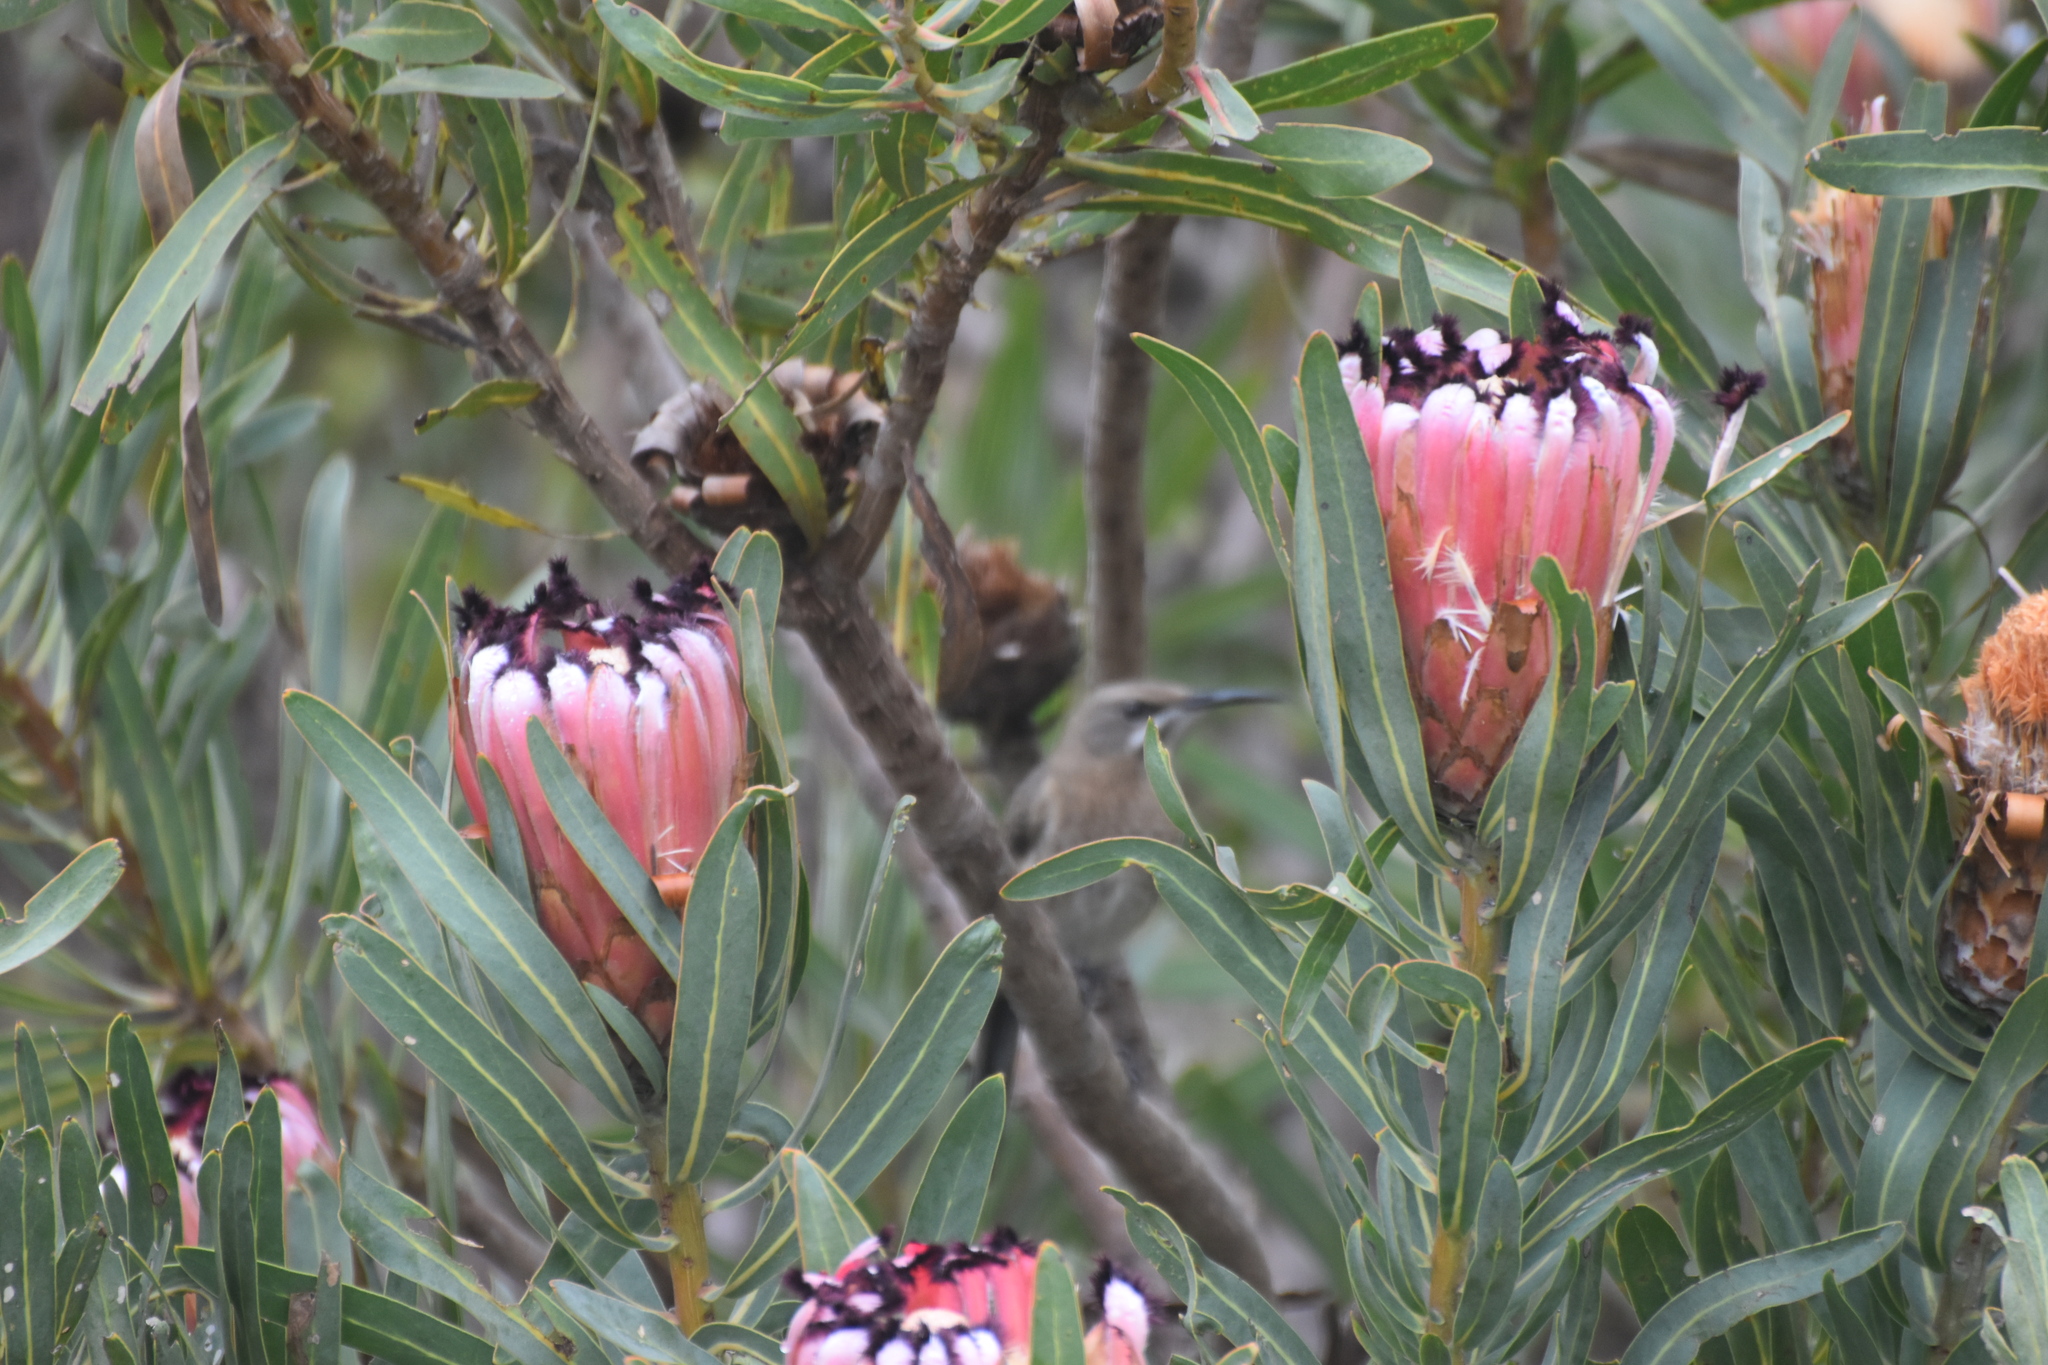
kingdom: Plantae
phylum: Tracheophyta
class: Magnoliopsida
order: Proteales
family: Proteaceae
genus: Protea
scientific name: Protea neriifolia
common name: Blue sugarbush
